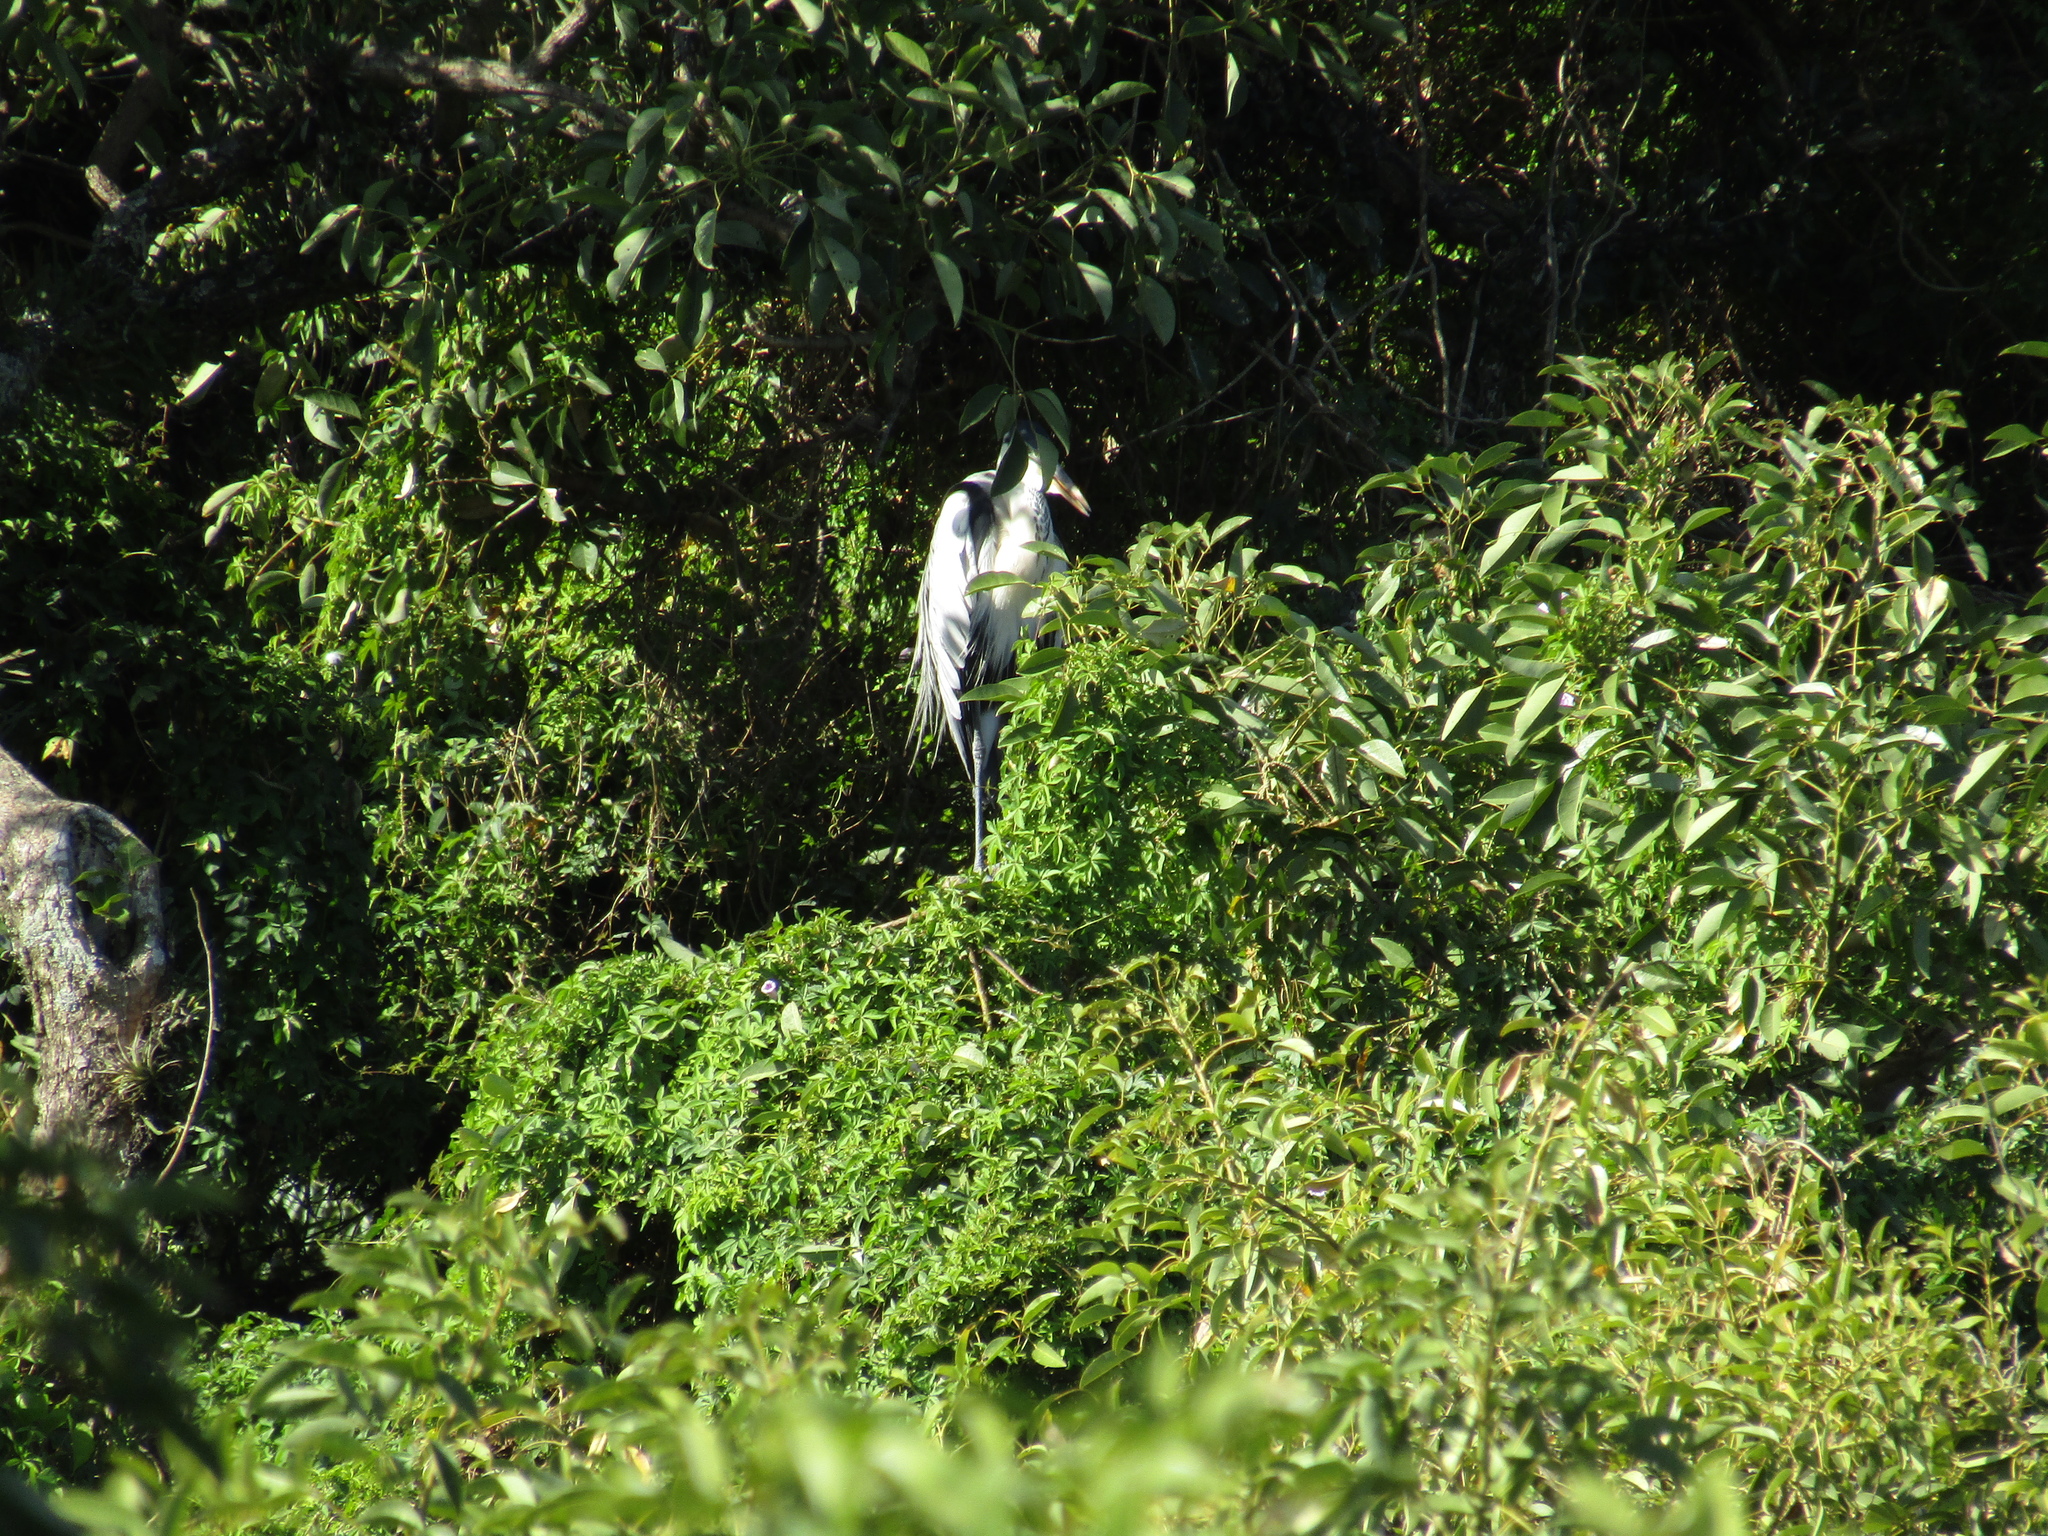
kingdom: Animalia
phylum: Chordata
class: Aves
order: Pelecaniformes
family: Ardeidae
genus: Ardea
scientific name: Ardea cocoi
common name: Cocoi heron
